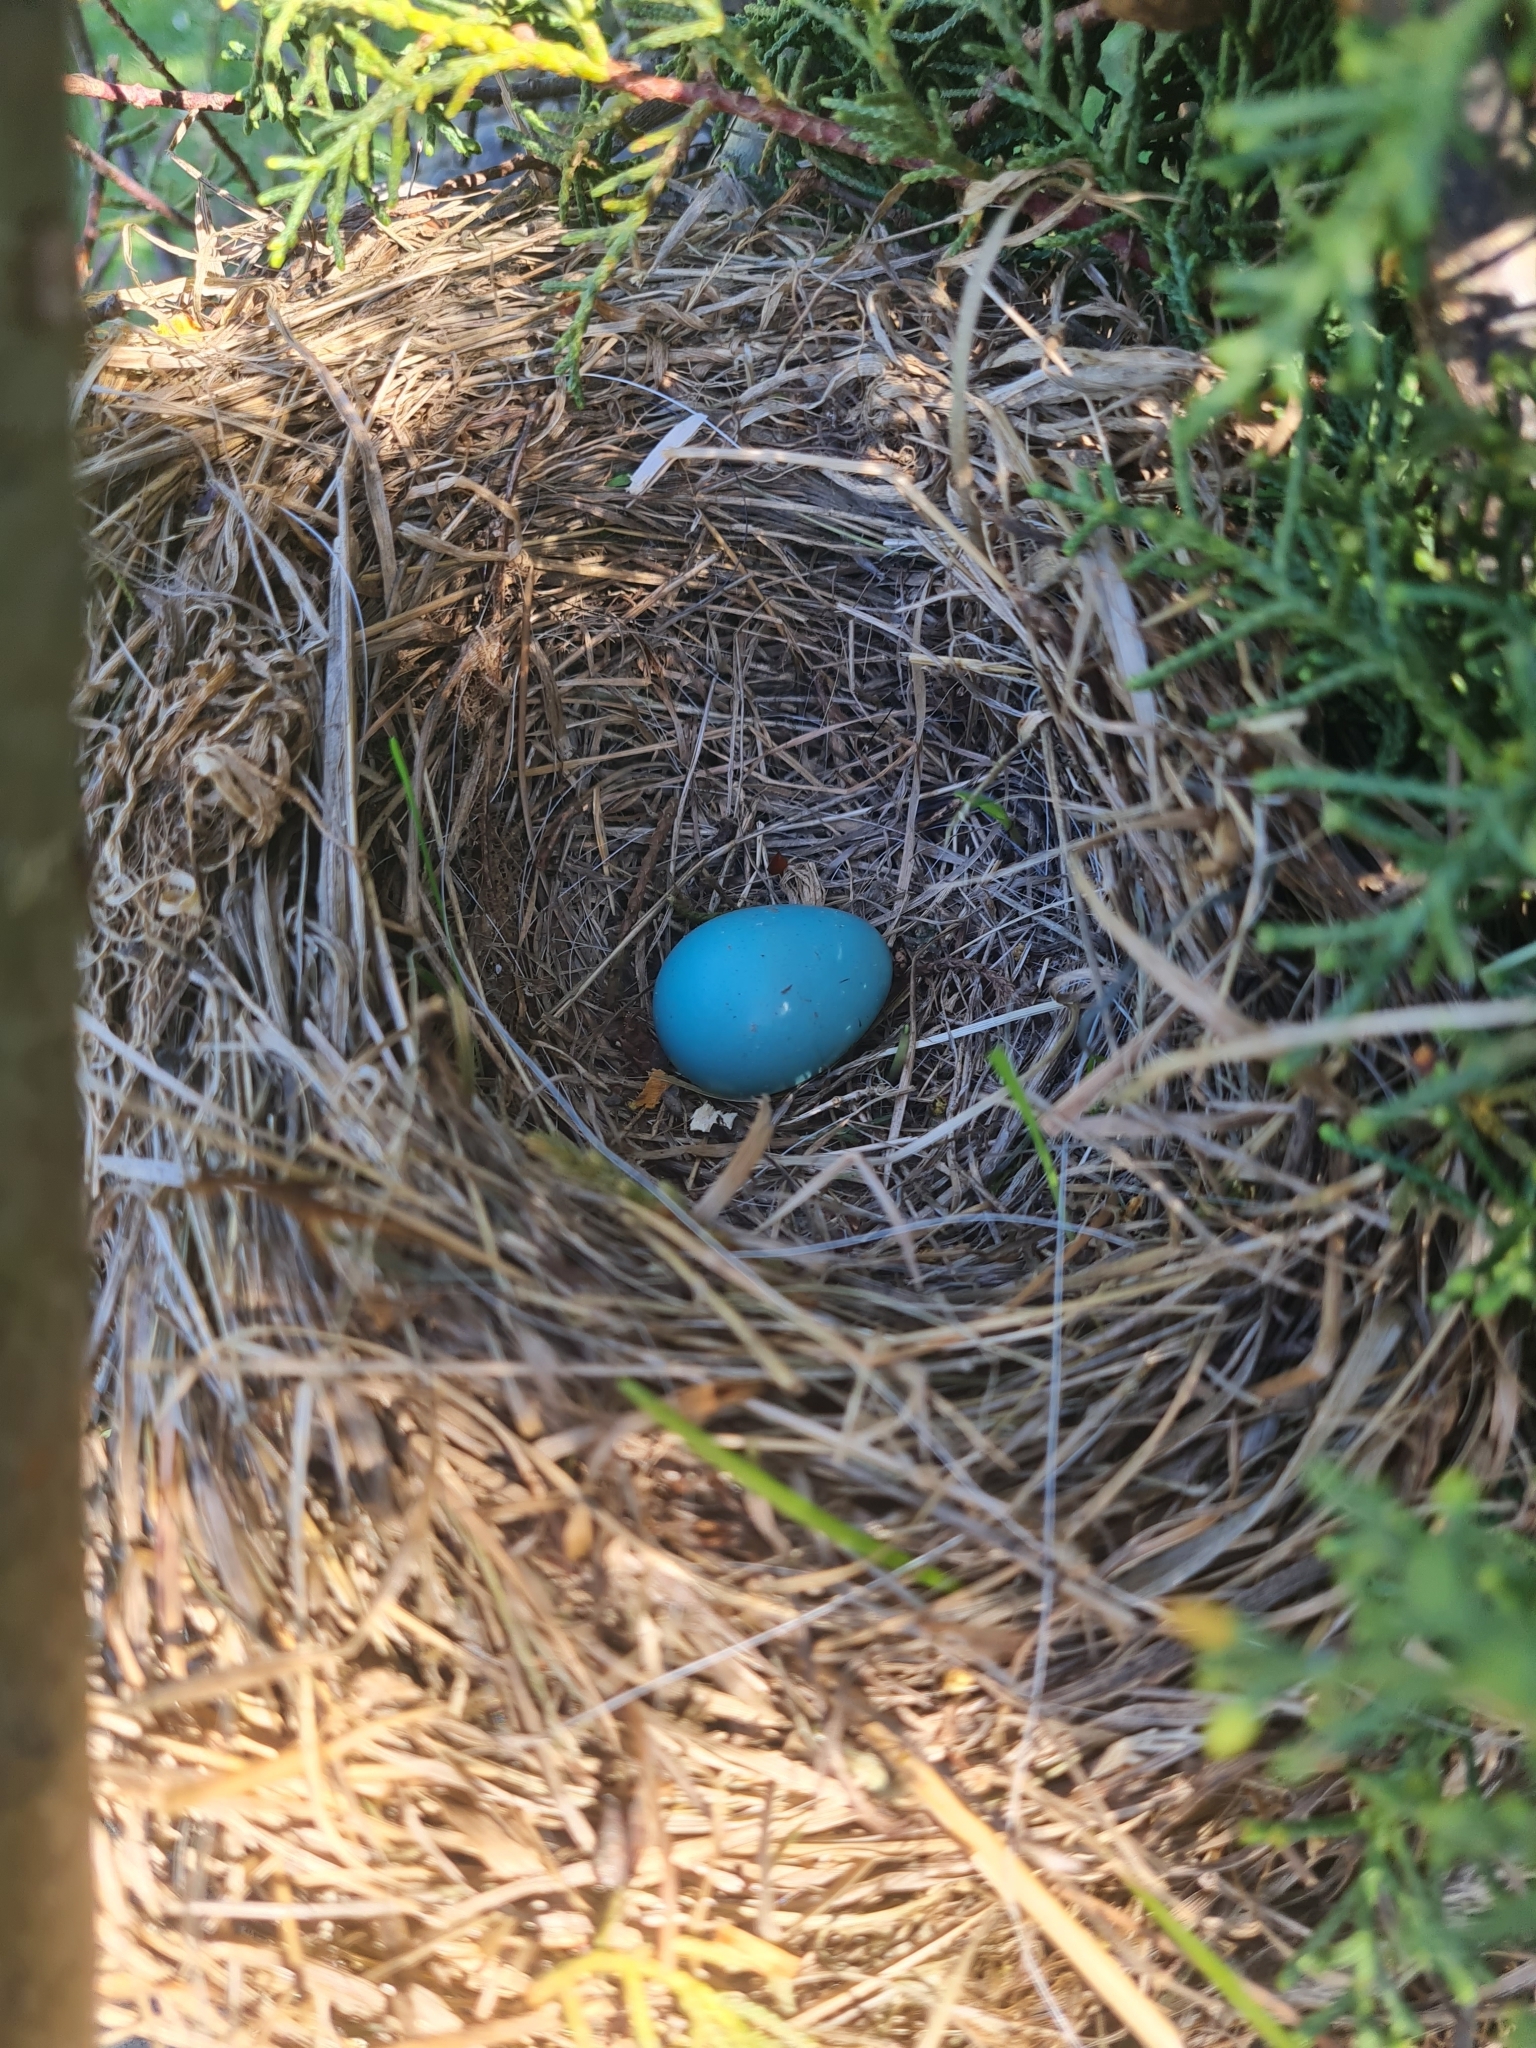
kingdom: Animalia
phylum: Chordata
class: Aves
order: Passeriformes
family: Prunellidae
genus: Prunella
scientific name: Prunella modularis
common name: Dunnock
